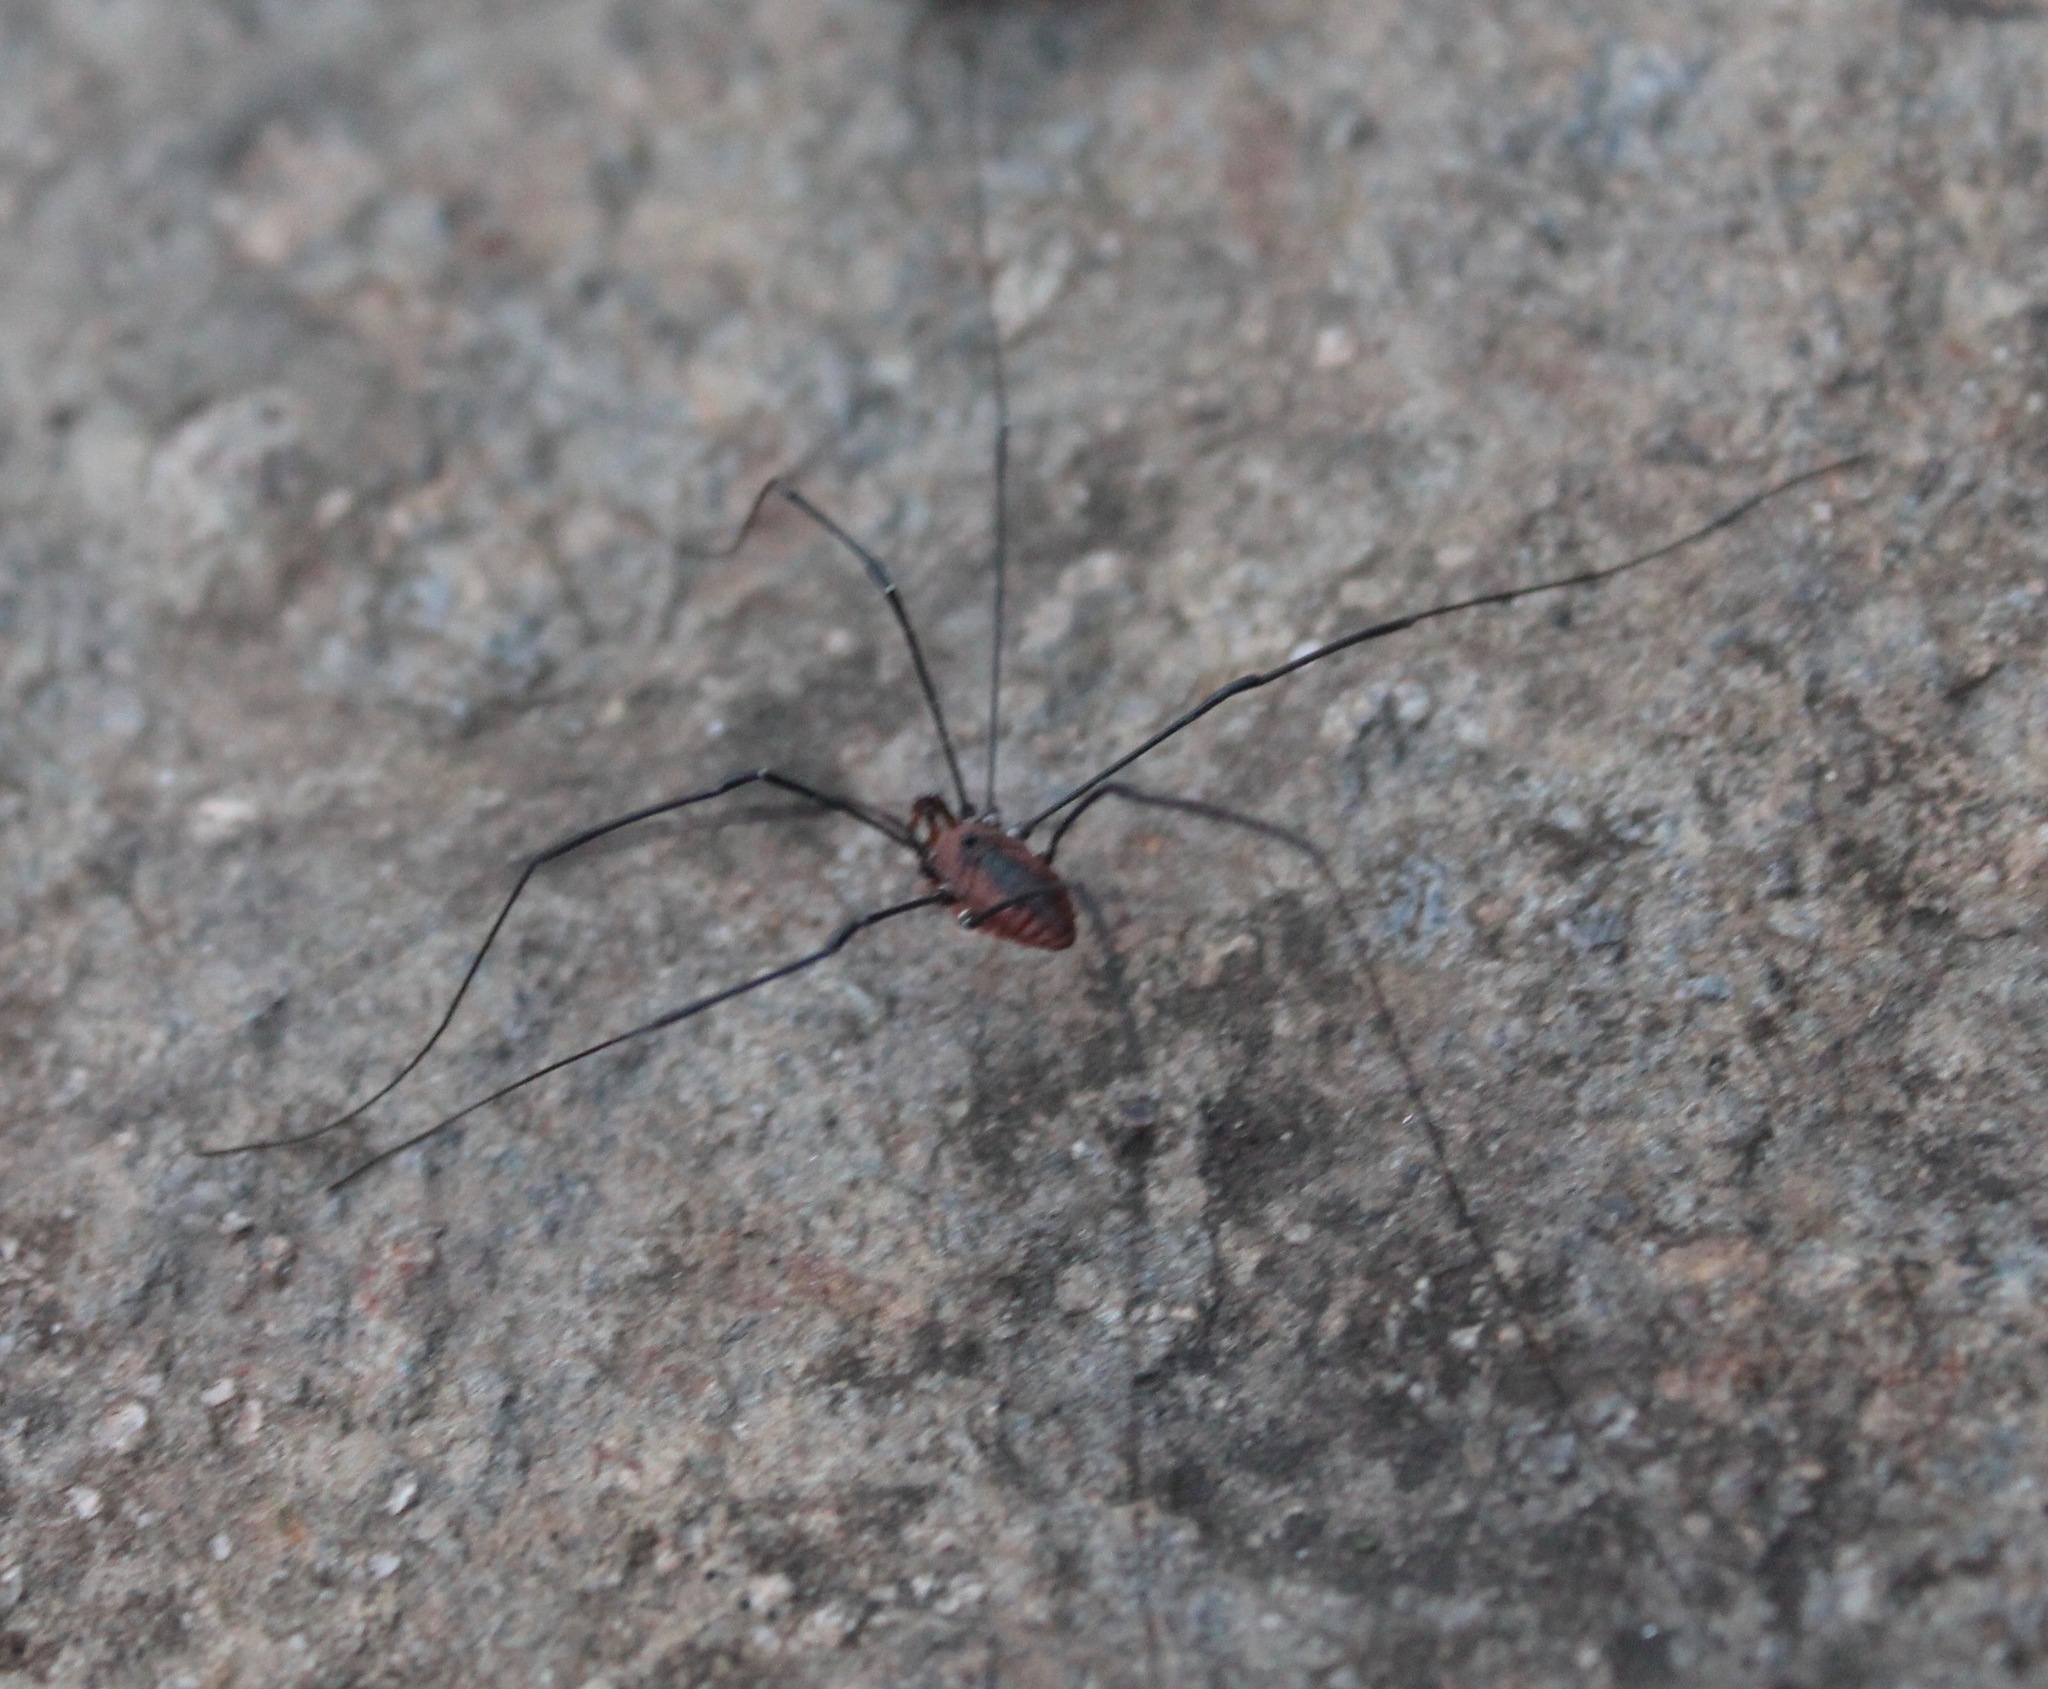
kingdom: Animalia
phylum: Arthropoda
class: Arachnida
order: Opiliones
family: Sclerosomatidae
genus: Leiobunum
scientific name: Leiobunum vittatum
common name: Eastern harvestman
